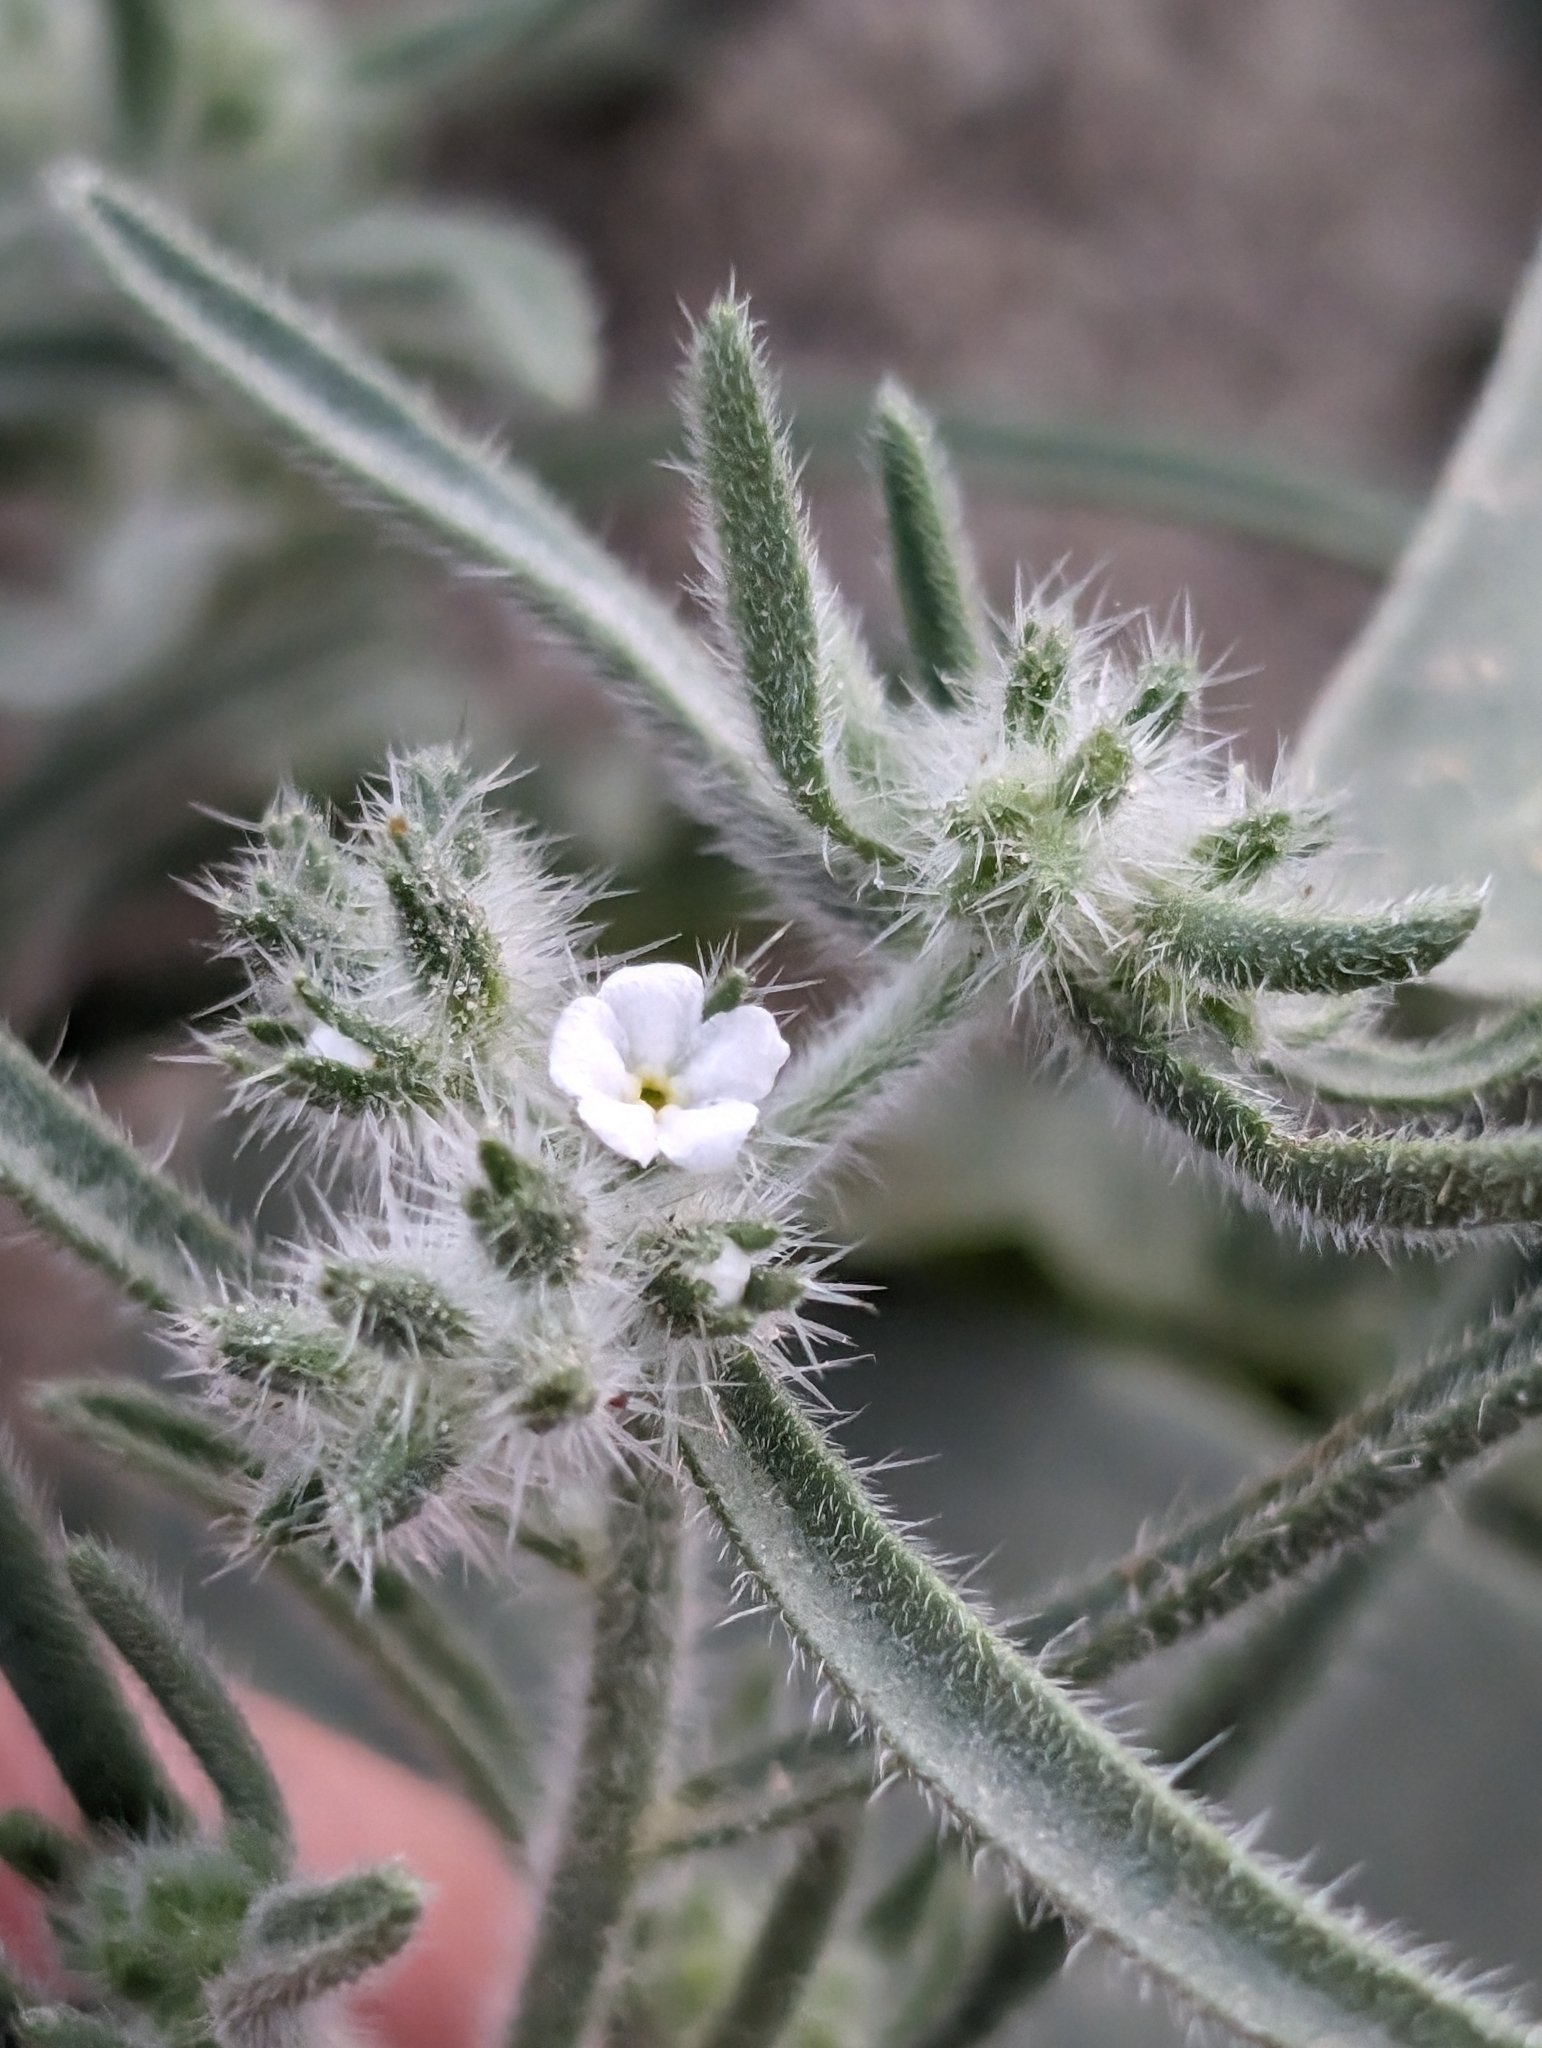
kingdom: Plantae
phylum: Tracheophyta
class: Magnoliopsida
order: Boraginales
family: Boraginaceae
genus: Johnstonella
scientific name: Johnstonella angustifolia
